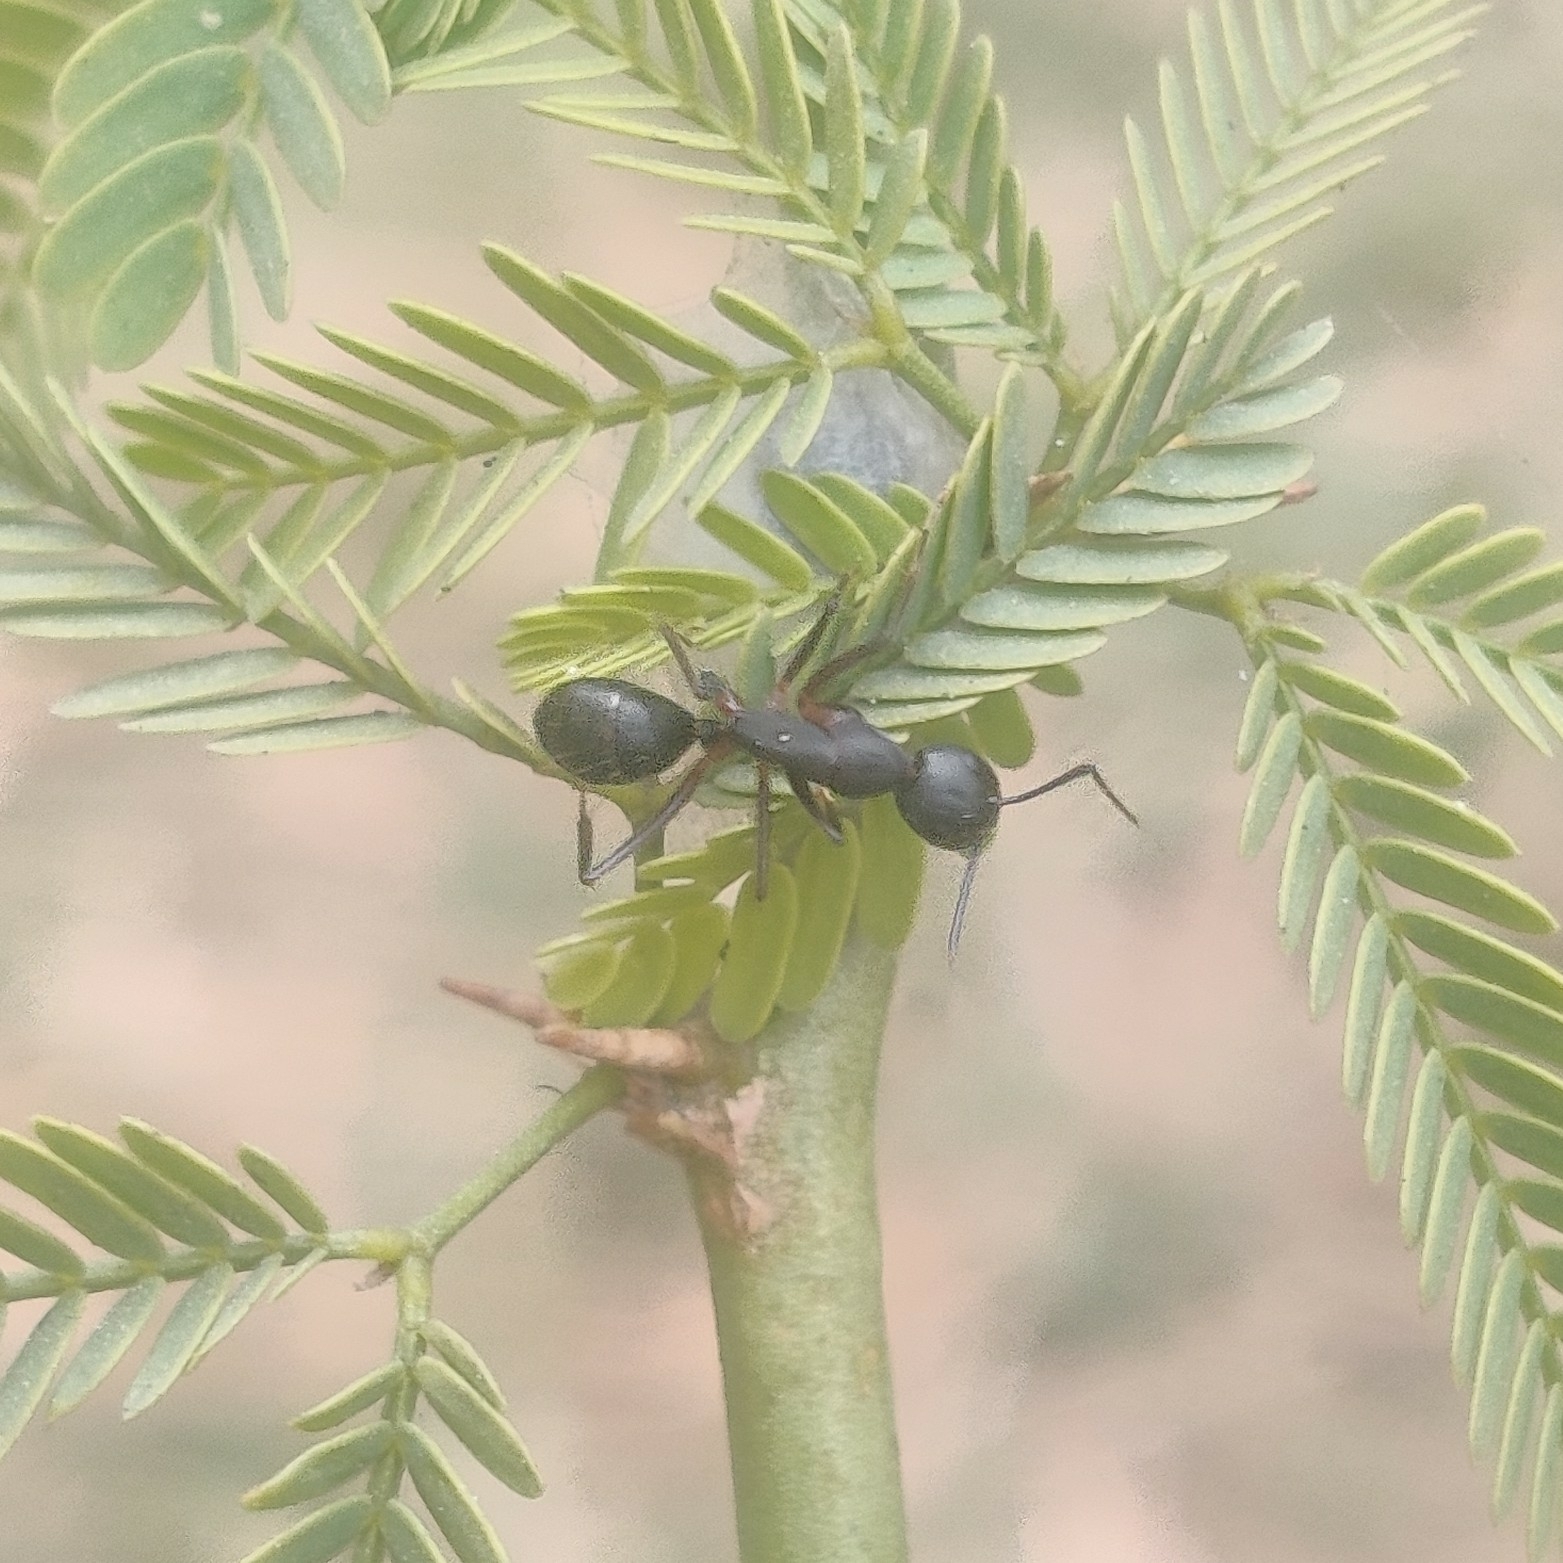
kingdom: Animalia
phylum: Arthropoda
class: Insecta
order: Hymenoptera
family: Formicidae
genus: Camponotus
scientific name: Camponotus compressus
